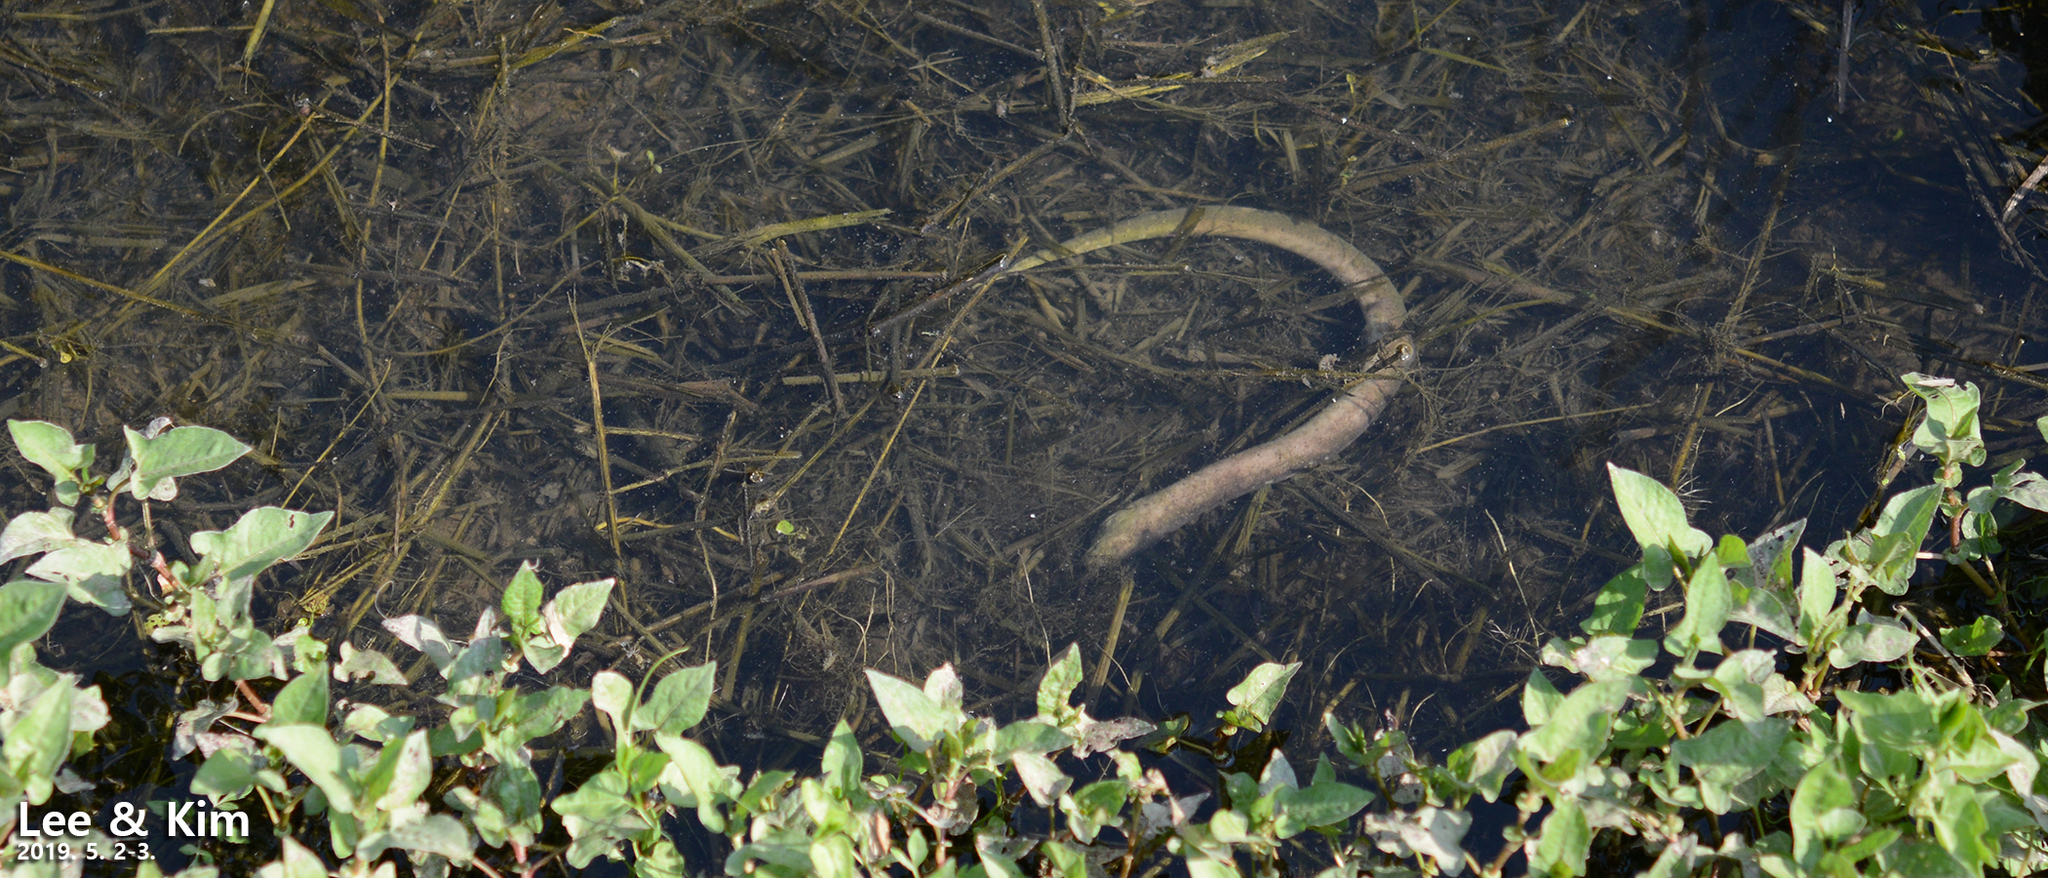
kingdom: Animalia
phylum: Chordata
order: Synbranchiformes
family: Synbranchidae
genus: Monopterus
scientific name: Monopterus albus
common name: Asian swamp eel
